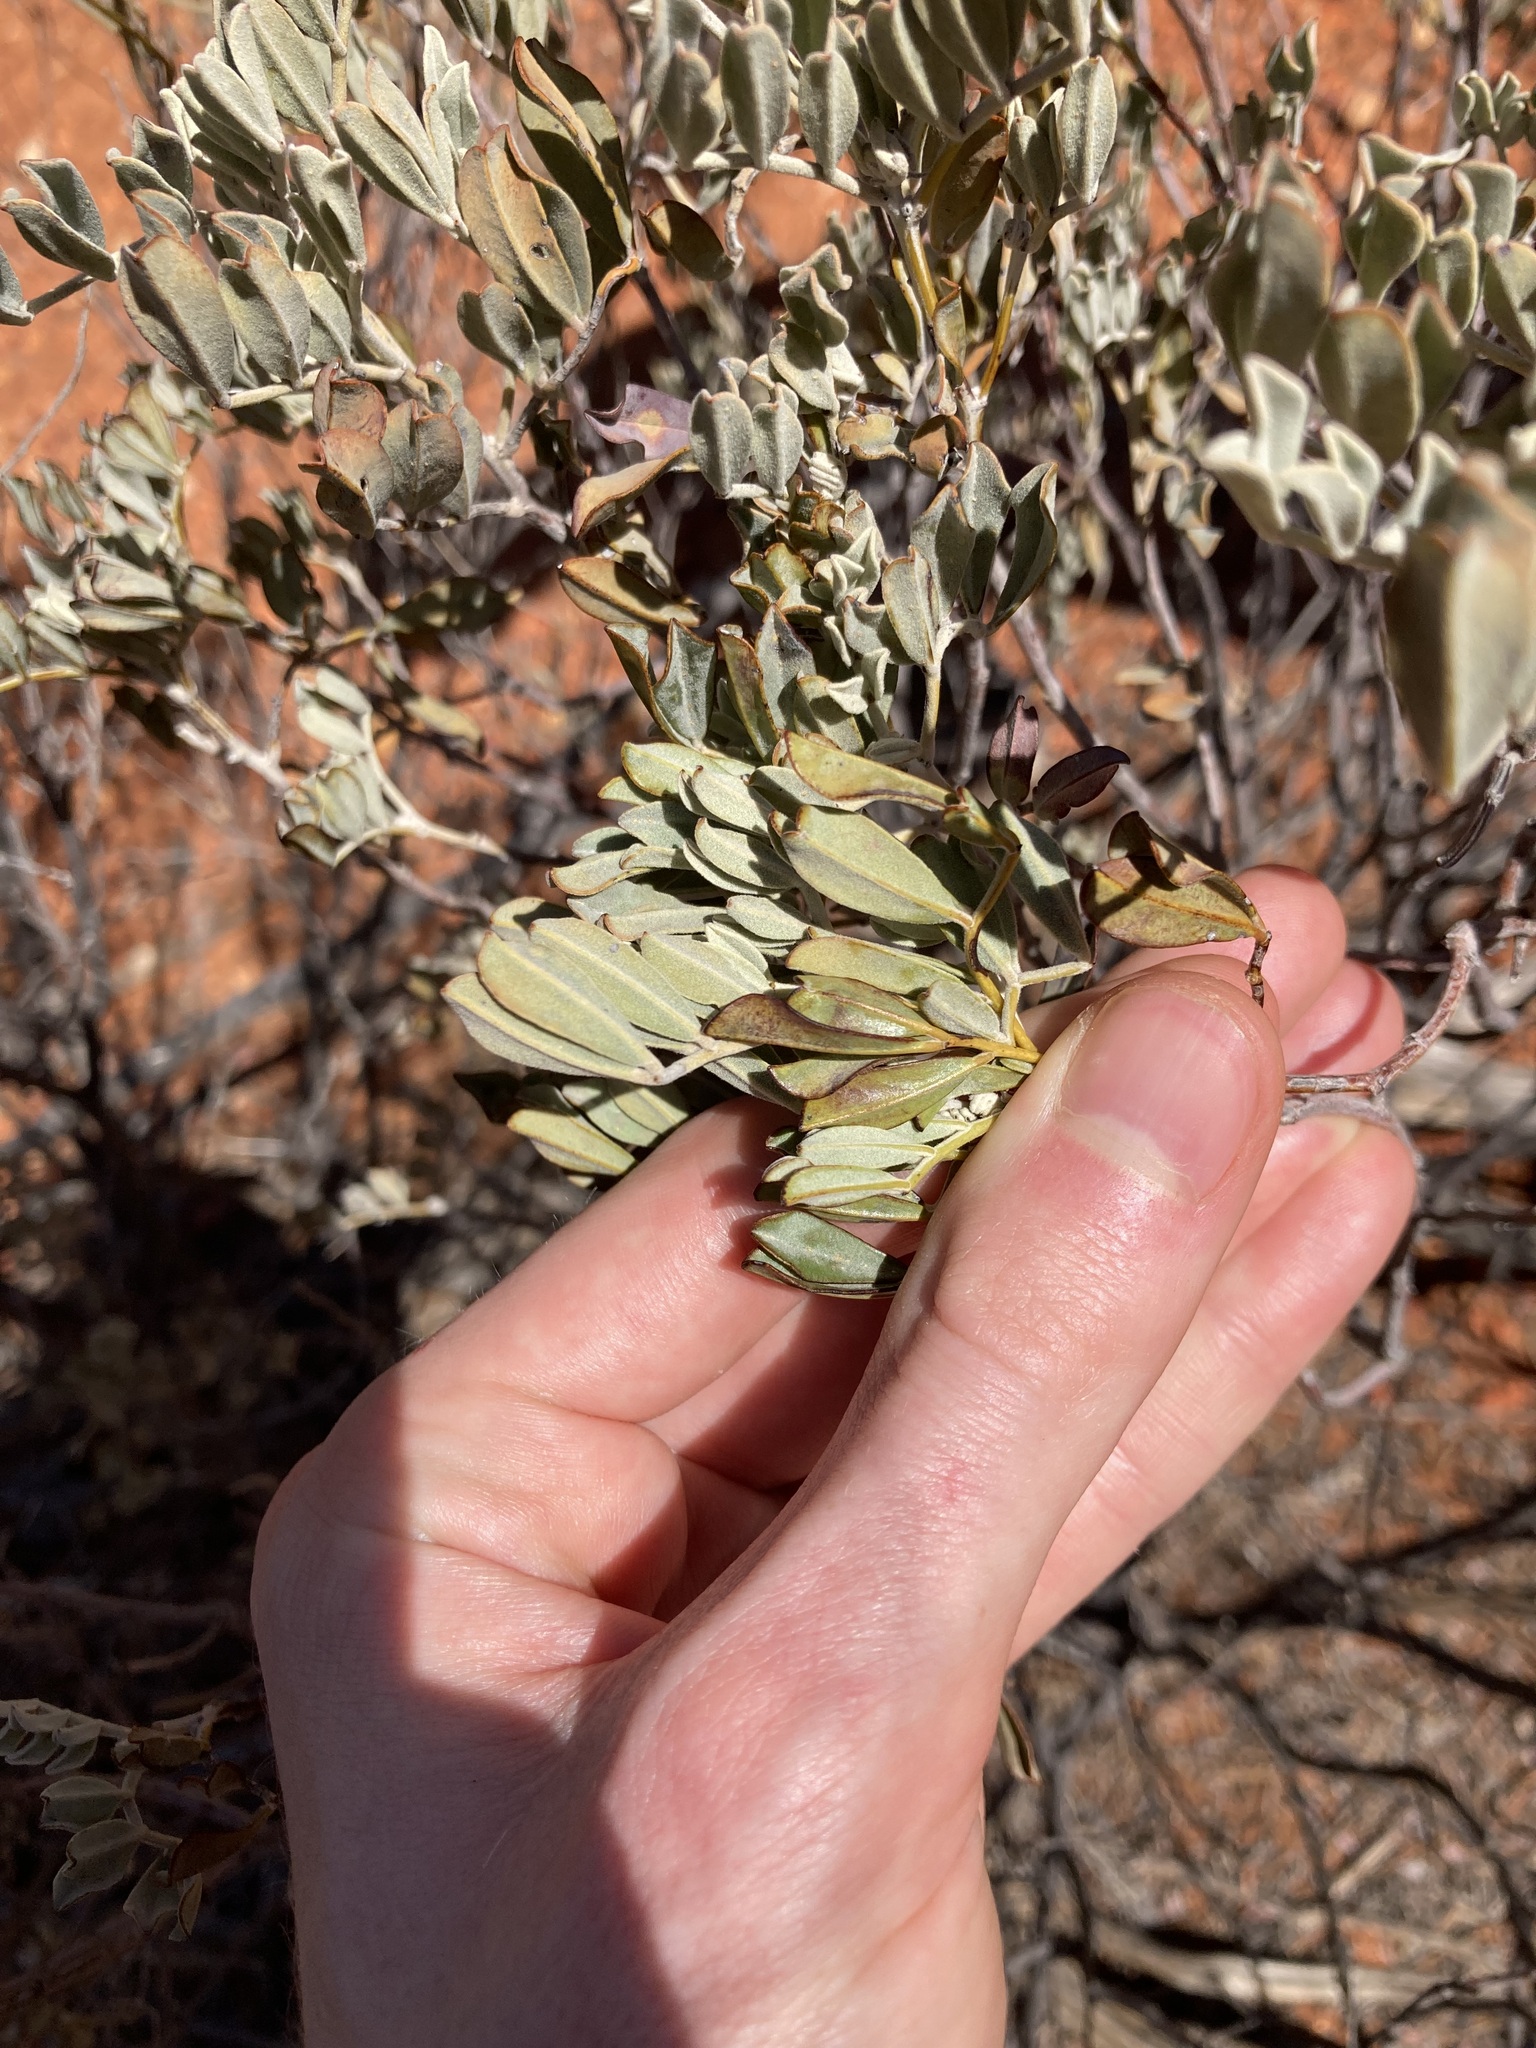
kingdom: Plantae
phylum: Tracheophyta
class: Magnoliopsida
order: Fabales
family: Fabaceae
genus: Senna
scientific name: Senna artemisioides
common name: Burnt-leaved acacia
